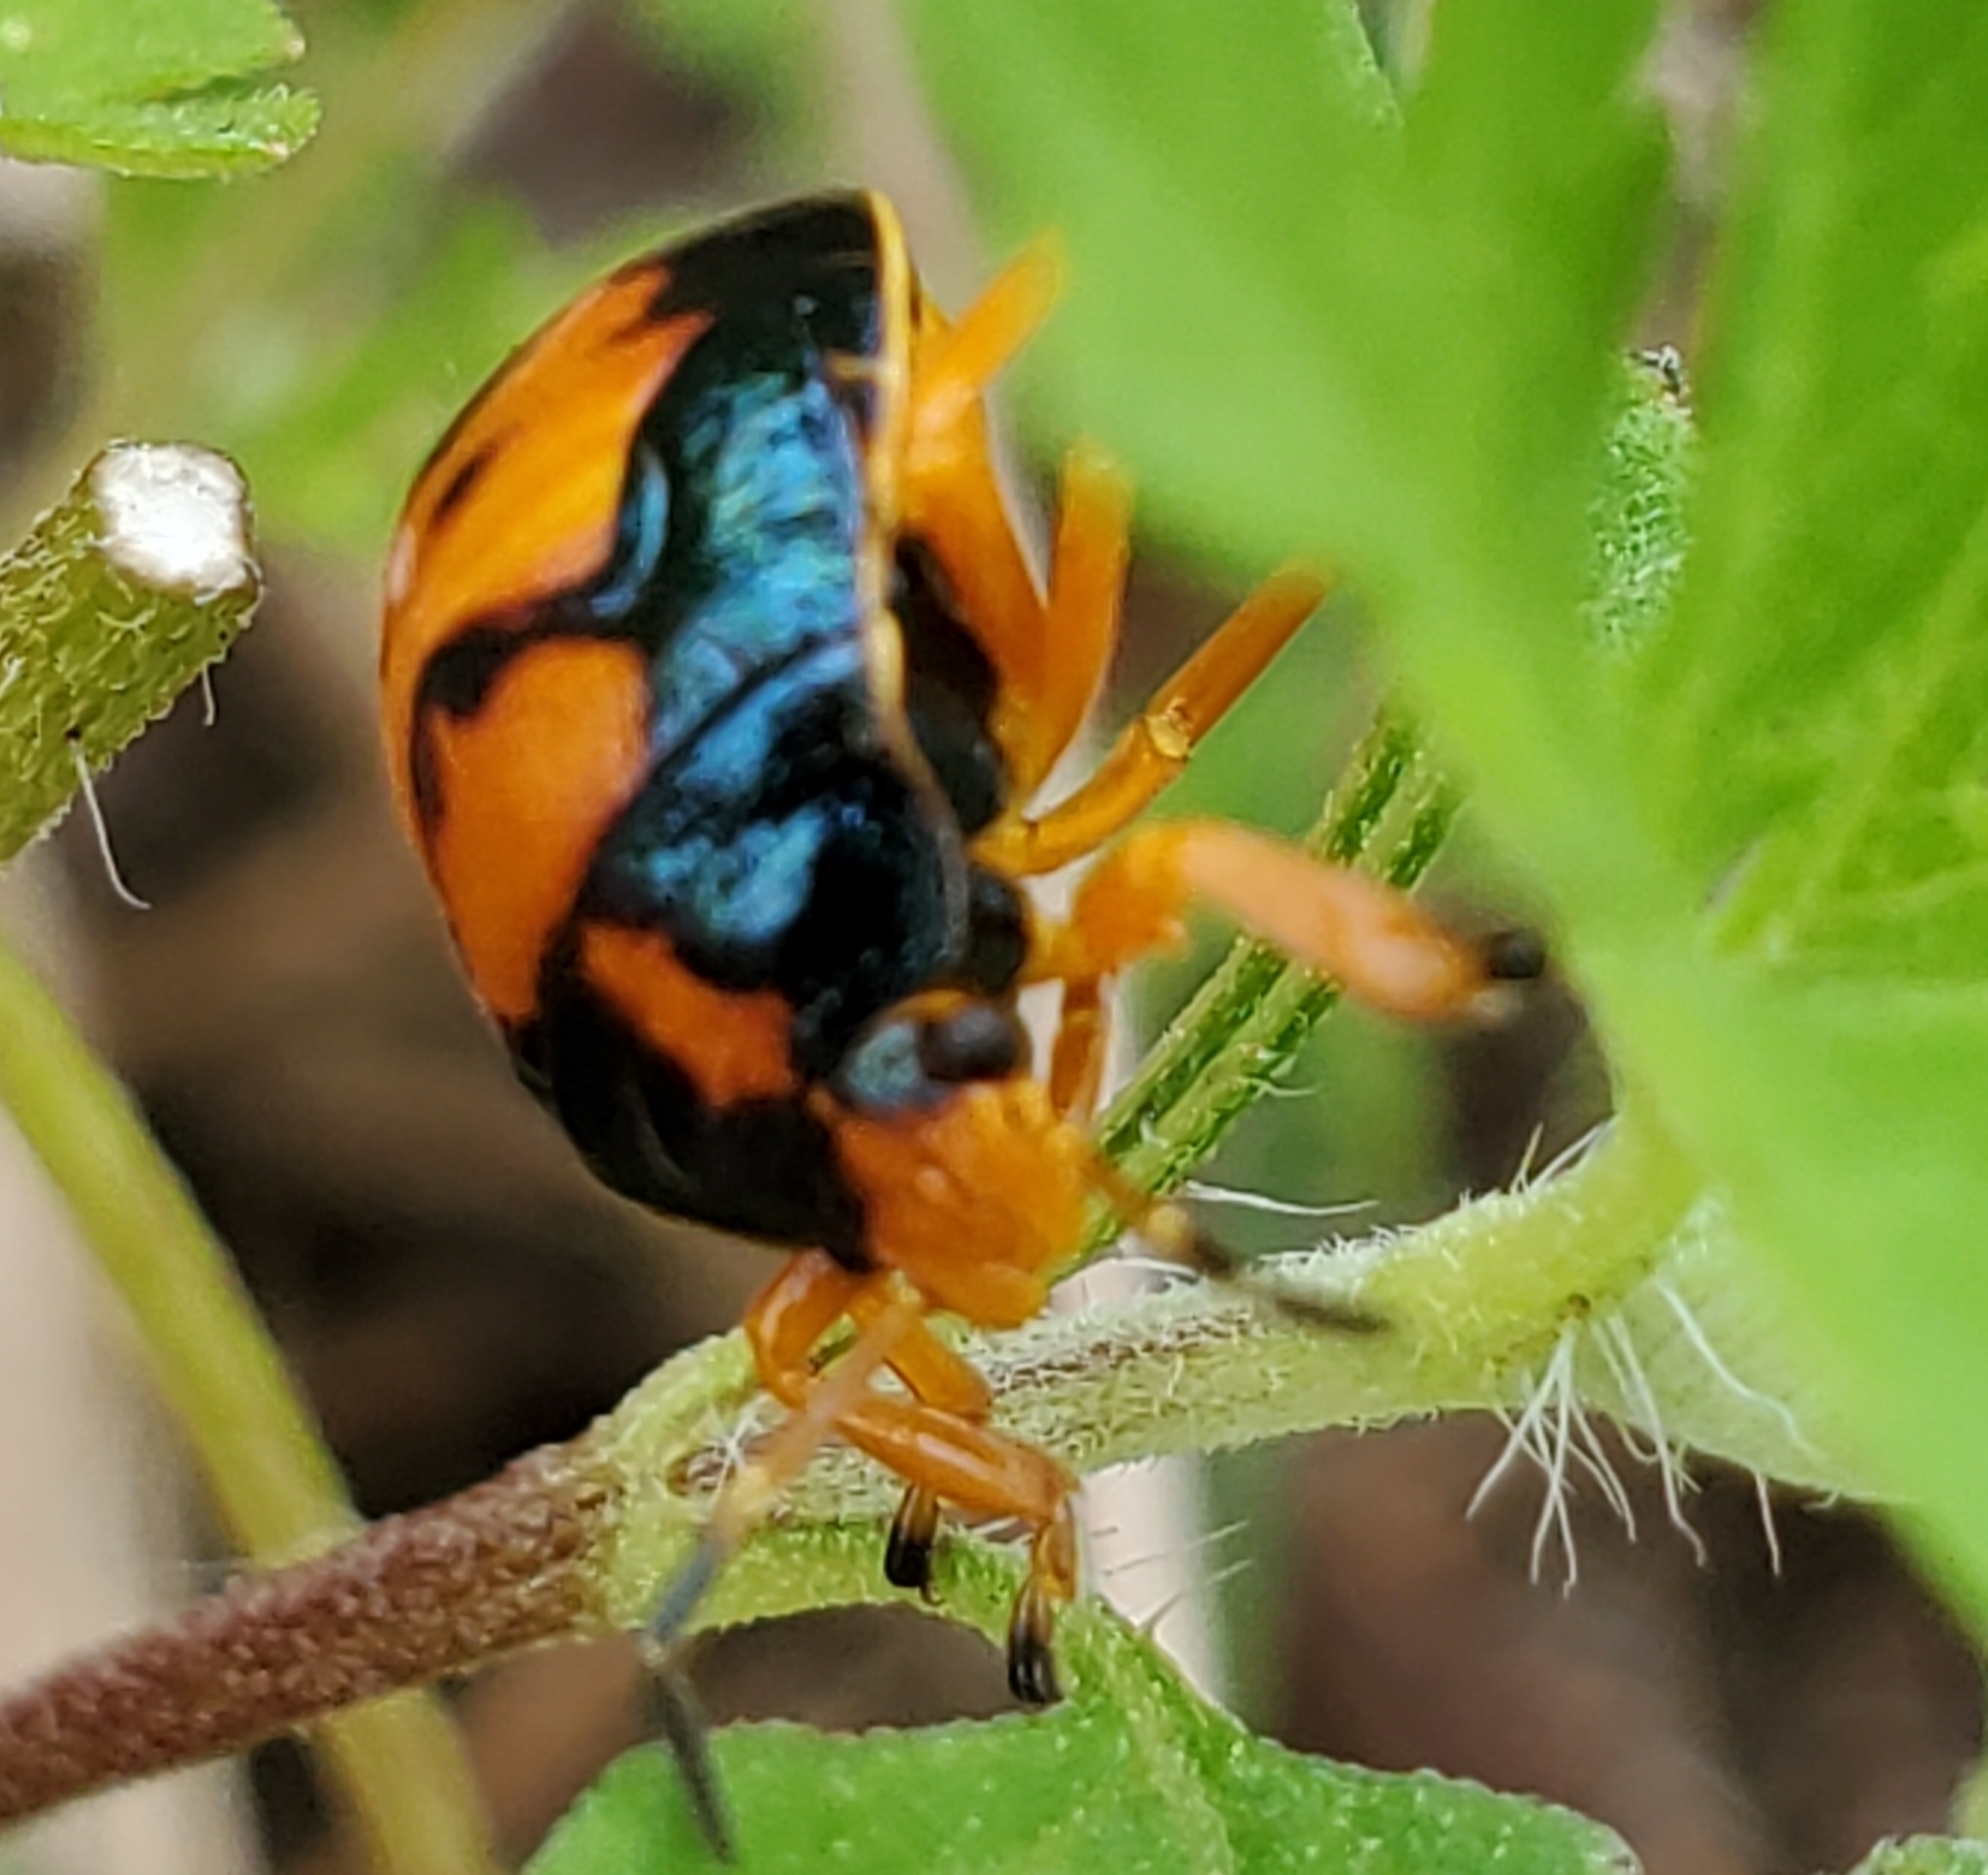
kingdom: Animalia
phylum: Arthropoda
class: Insecta
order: Hemiptera
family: Pentatomidae
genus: Stiretrus
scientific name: Stiretrus anchorago
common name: Anchor stink bug
